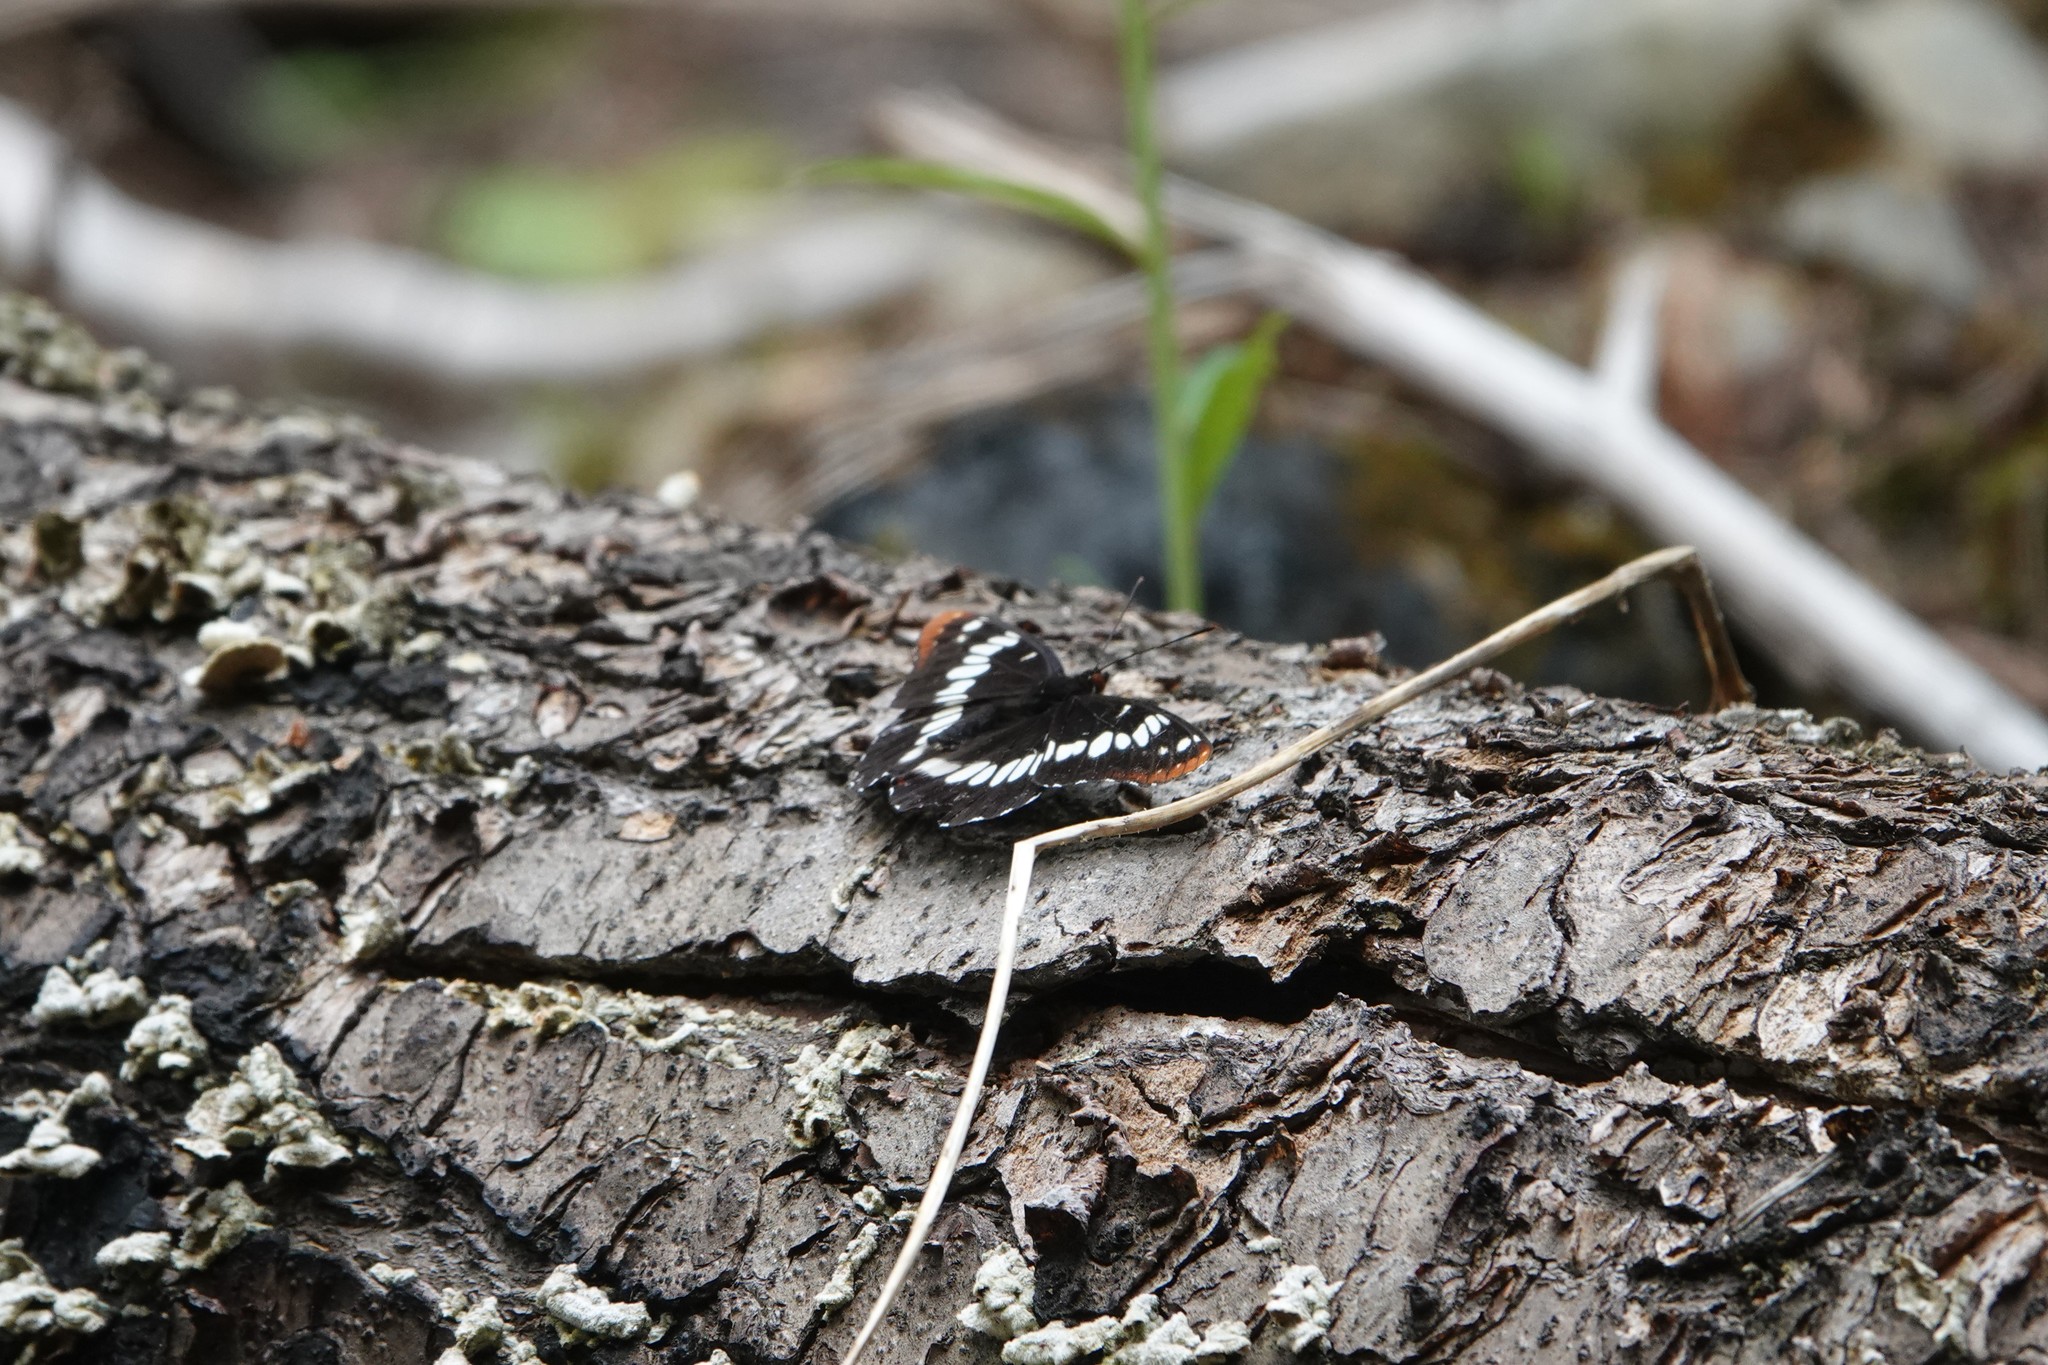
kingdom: Animalia
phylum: Arthropoda
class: Insecta
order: Lepidoptera
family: Nymphalidae
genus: Limenitis
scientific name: Limenitis lorquini
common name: Lorquin's admiral
